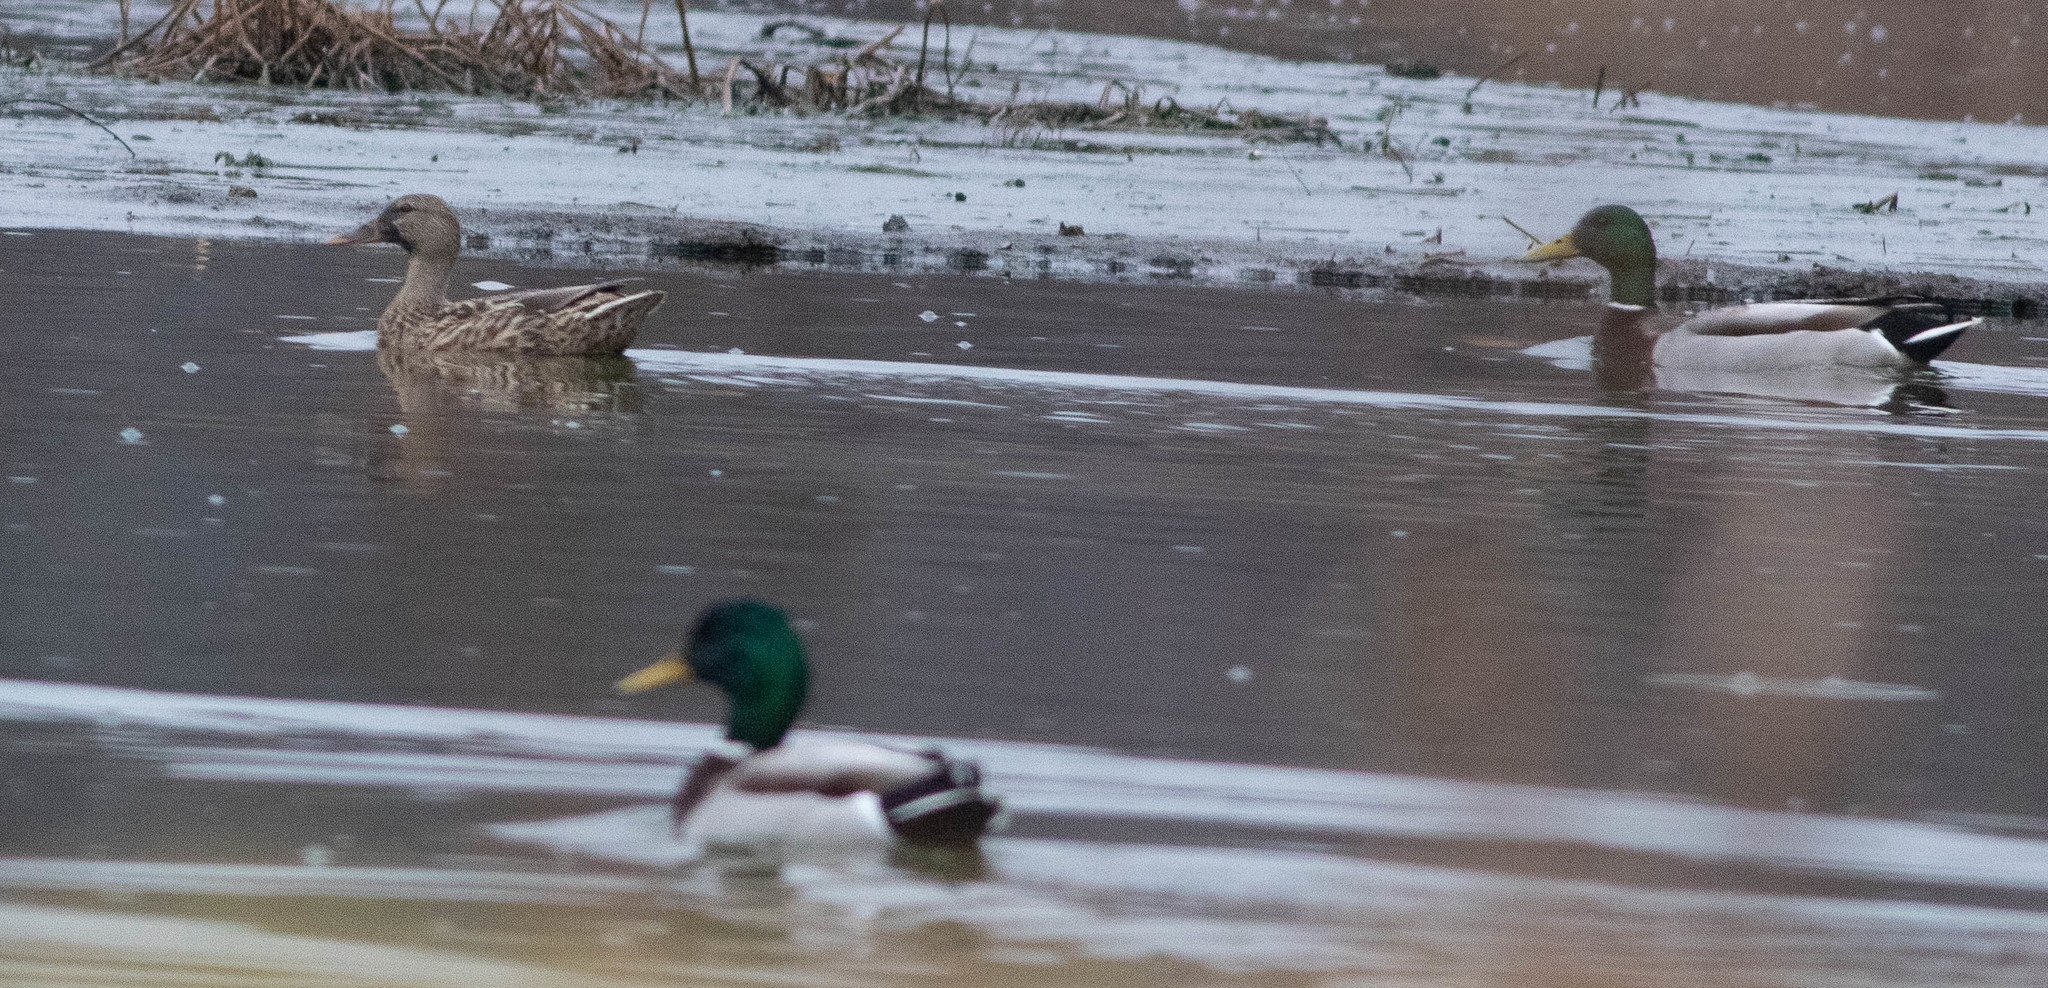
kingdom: Animalia
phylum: Chordata
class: Aves
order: Anseriformes
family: Anatidae
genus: Anas
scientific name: Anas platyrhynchos
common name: Mallard
